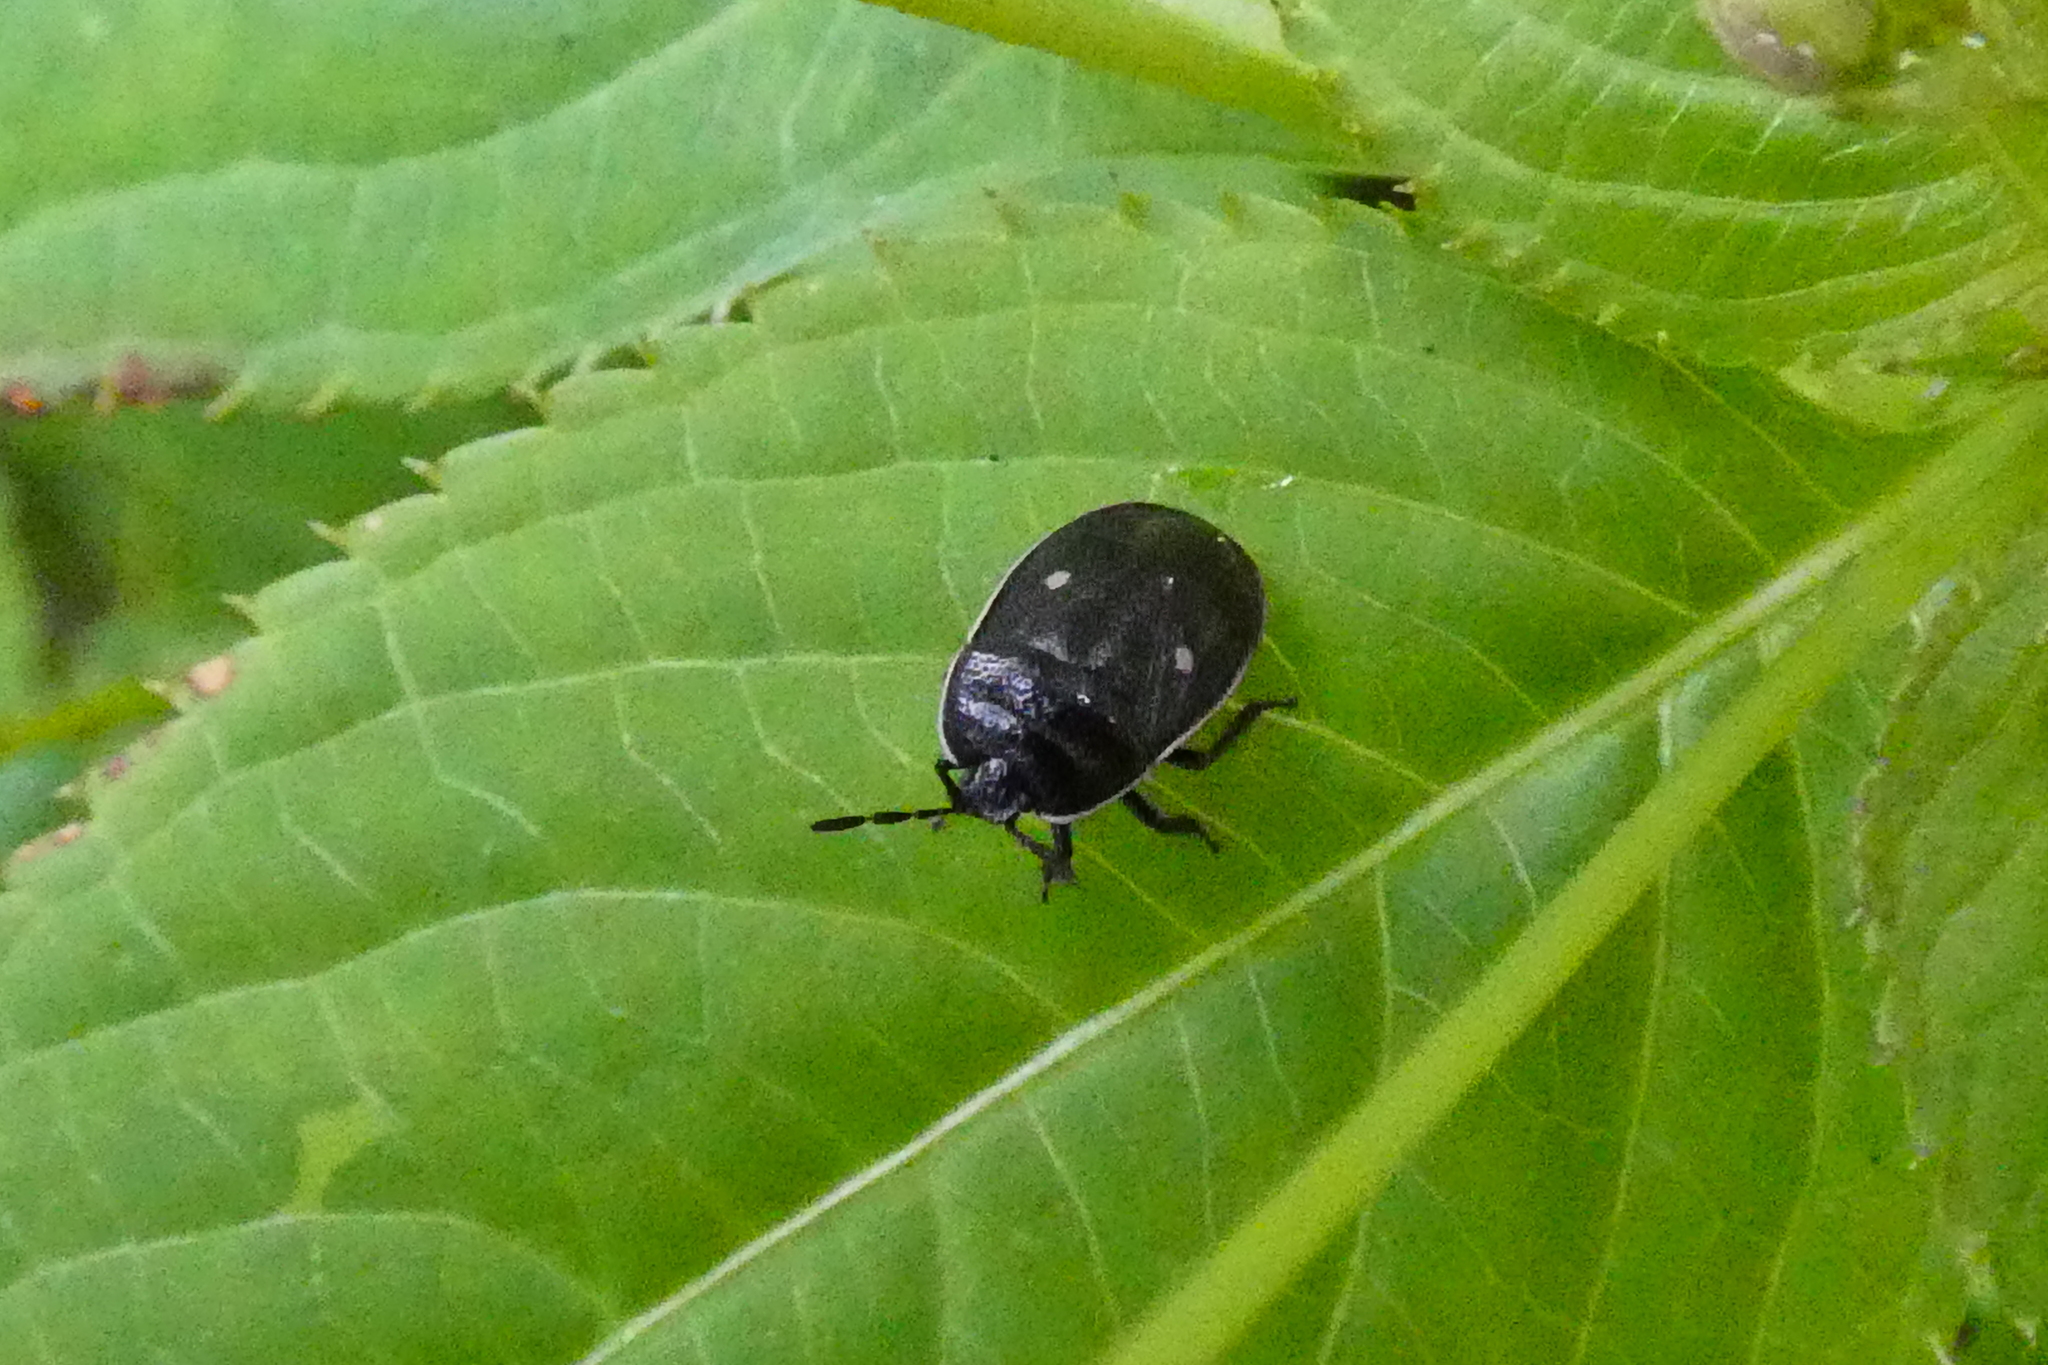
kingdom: Animalia
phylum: Arthropoda
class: Insecta
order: Hemiptera
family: Cydnidae
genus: Adomerus
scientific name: Adomerus biguttatus
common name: Cow wheat shieldbug
